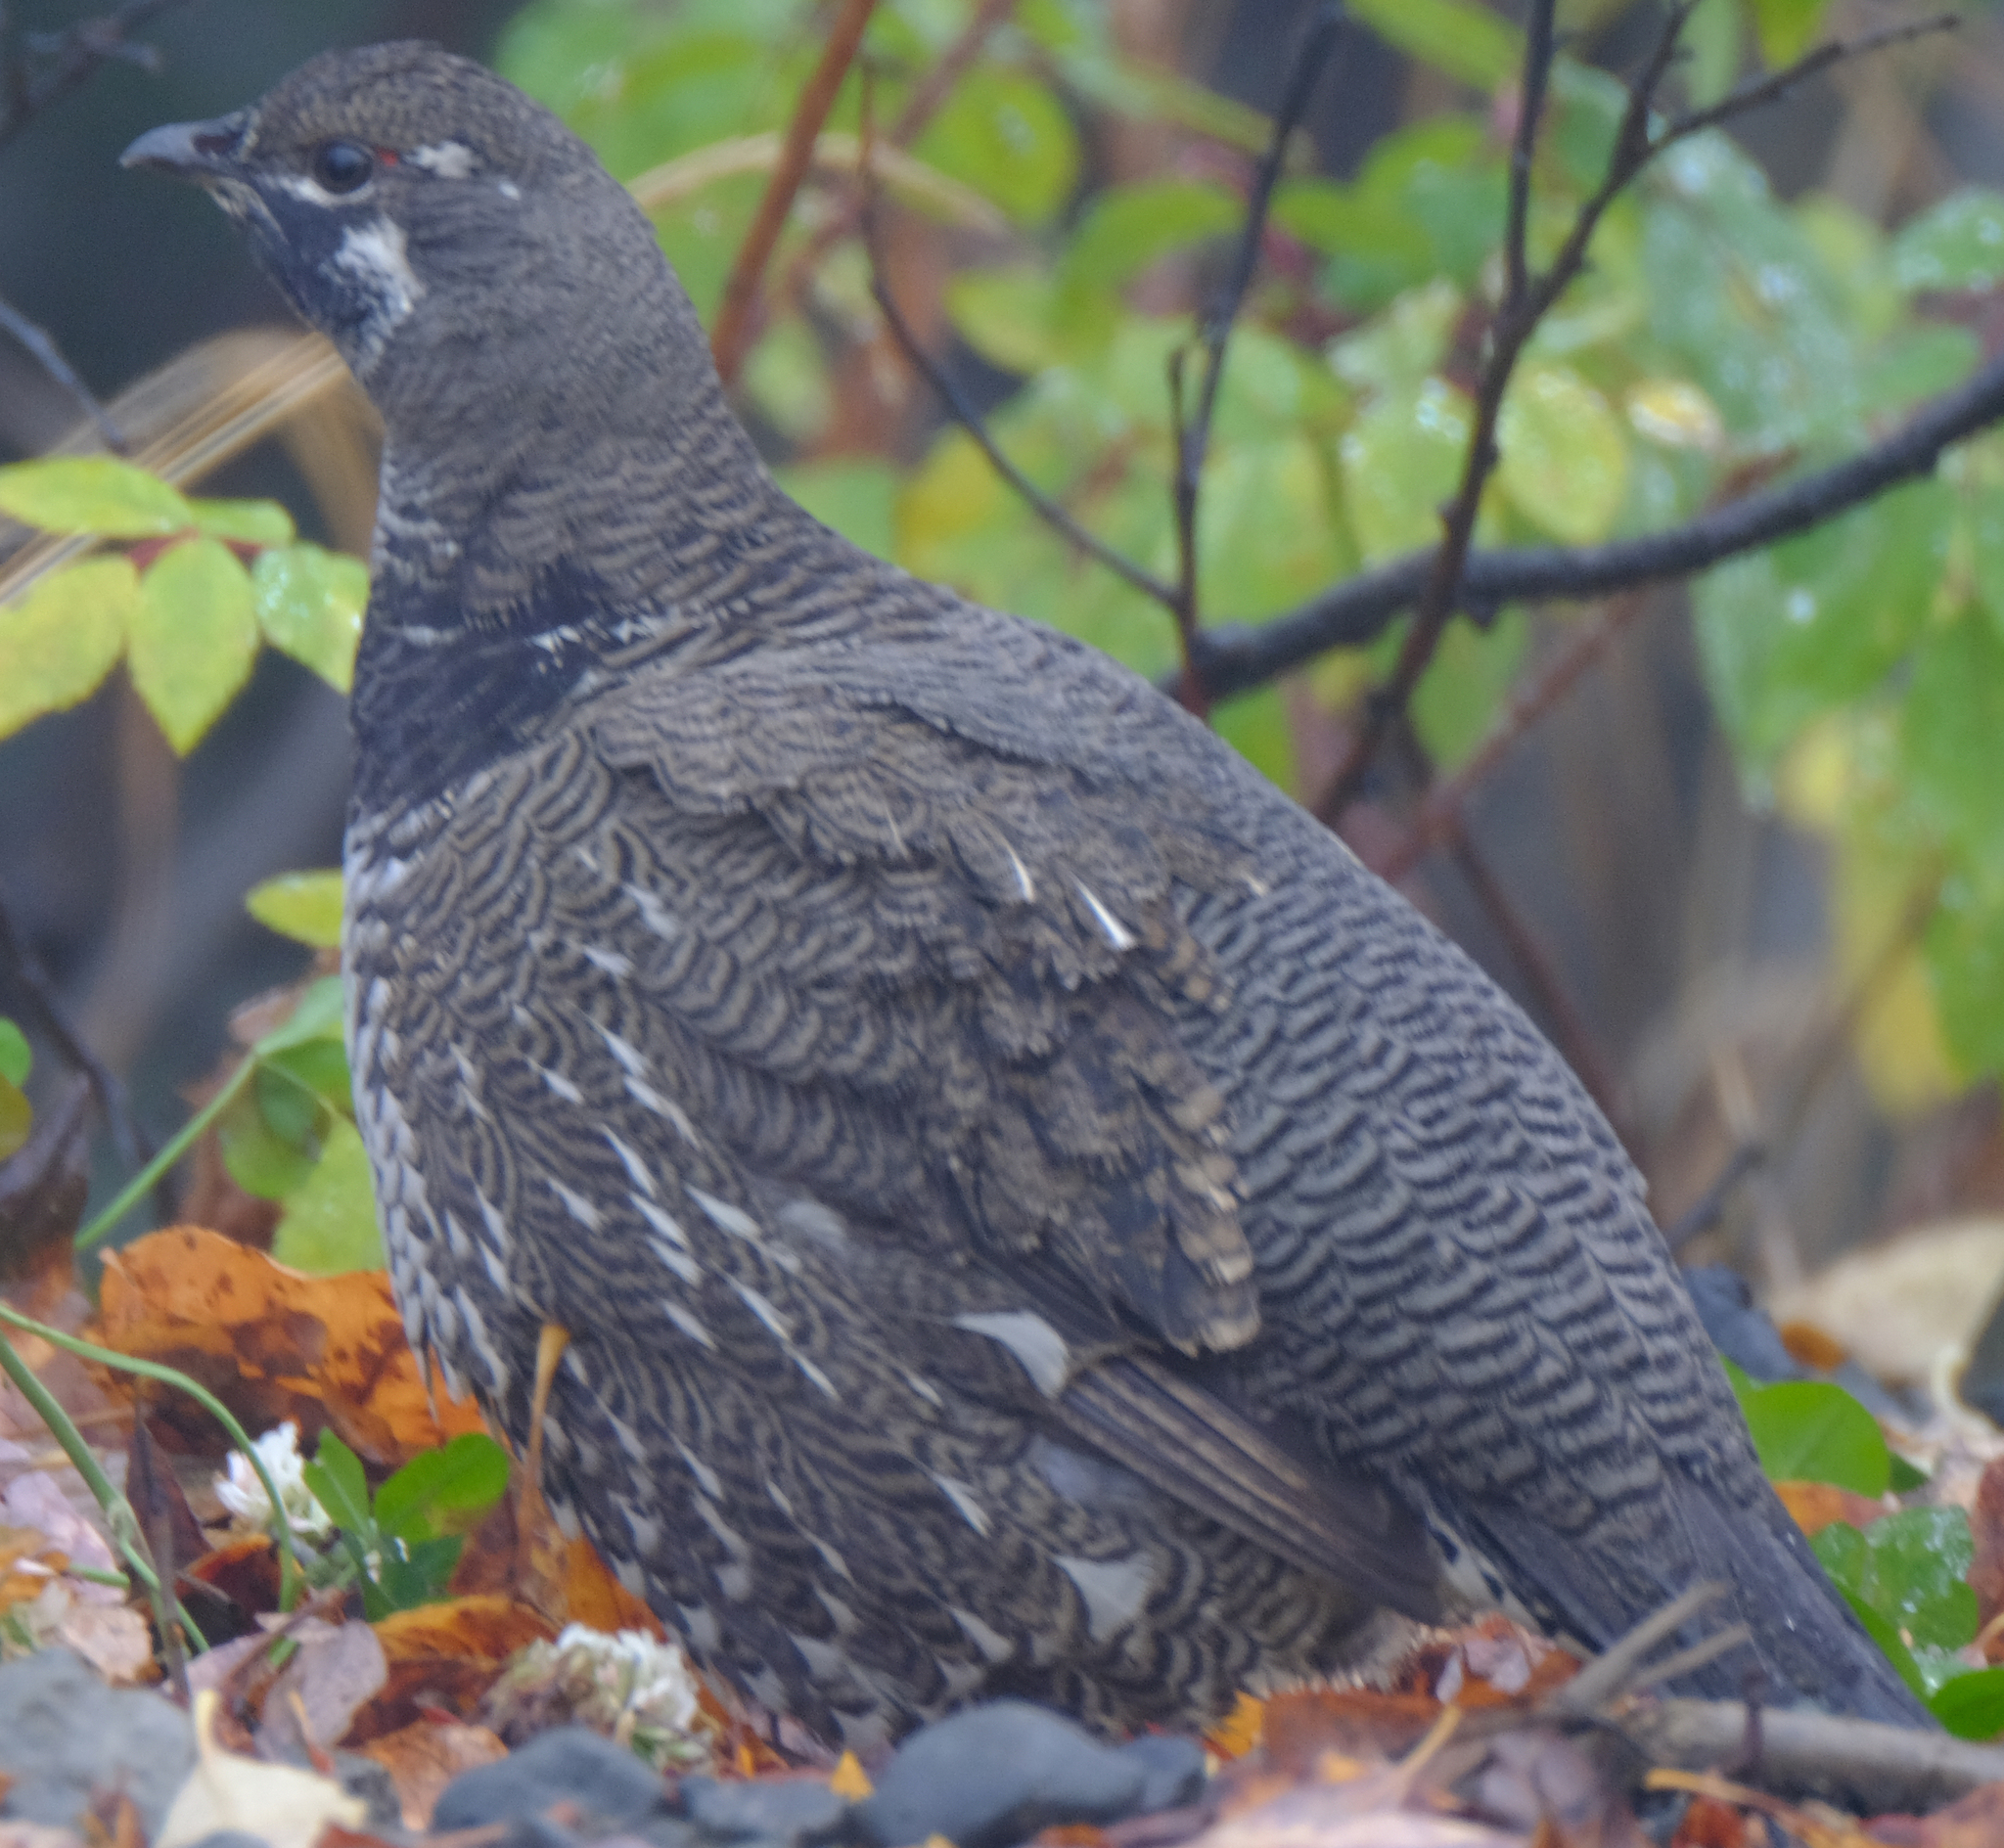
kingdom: Animalia
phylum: Chordata
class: Aves
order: Galliformes
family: Phasianidae
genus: Canachites
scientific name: Canachites canadensis
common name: Spruce grouse
